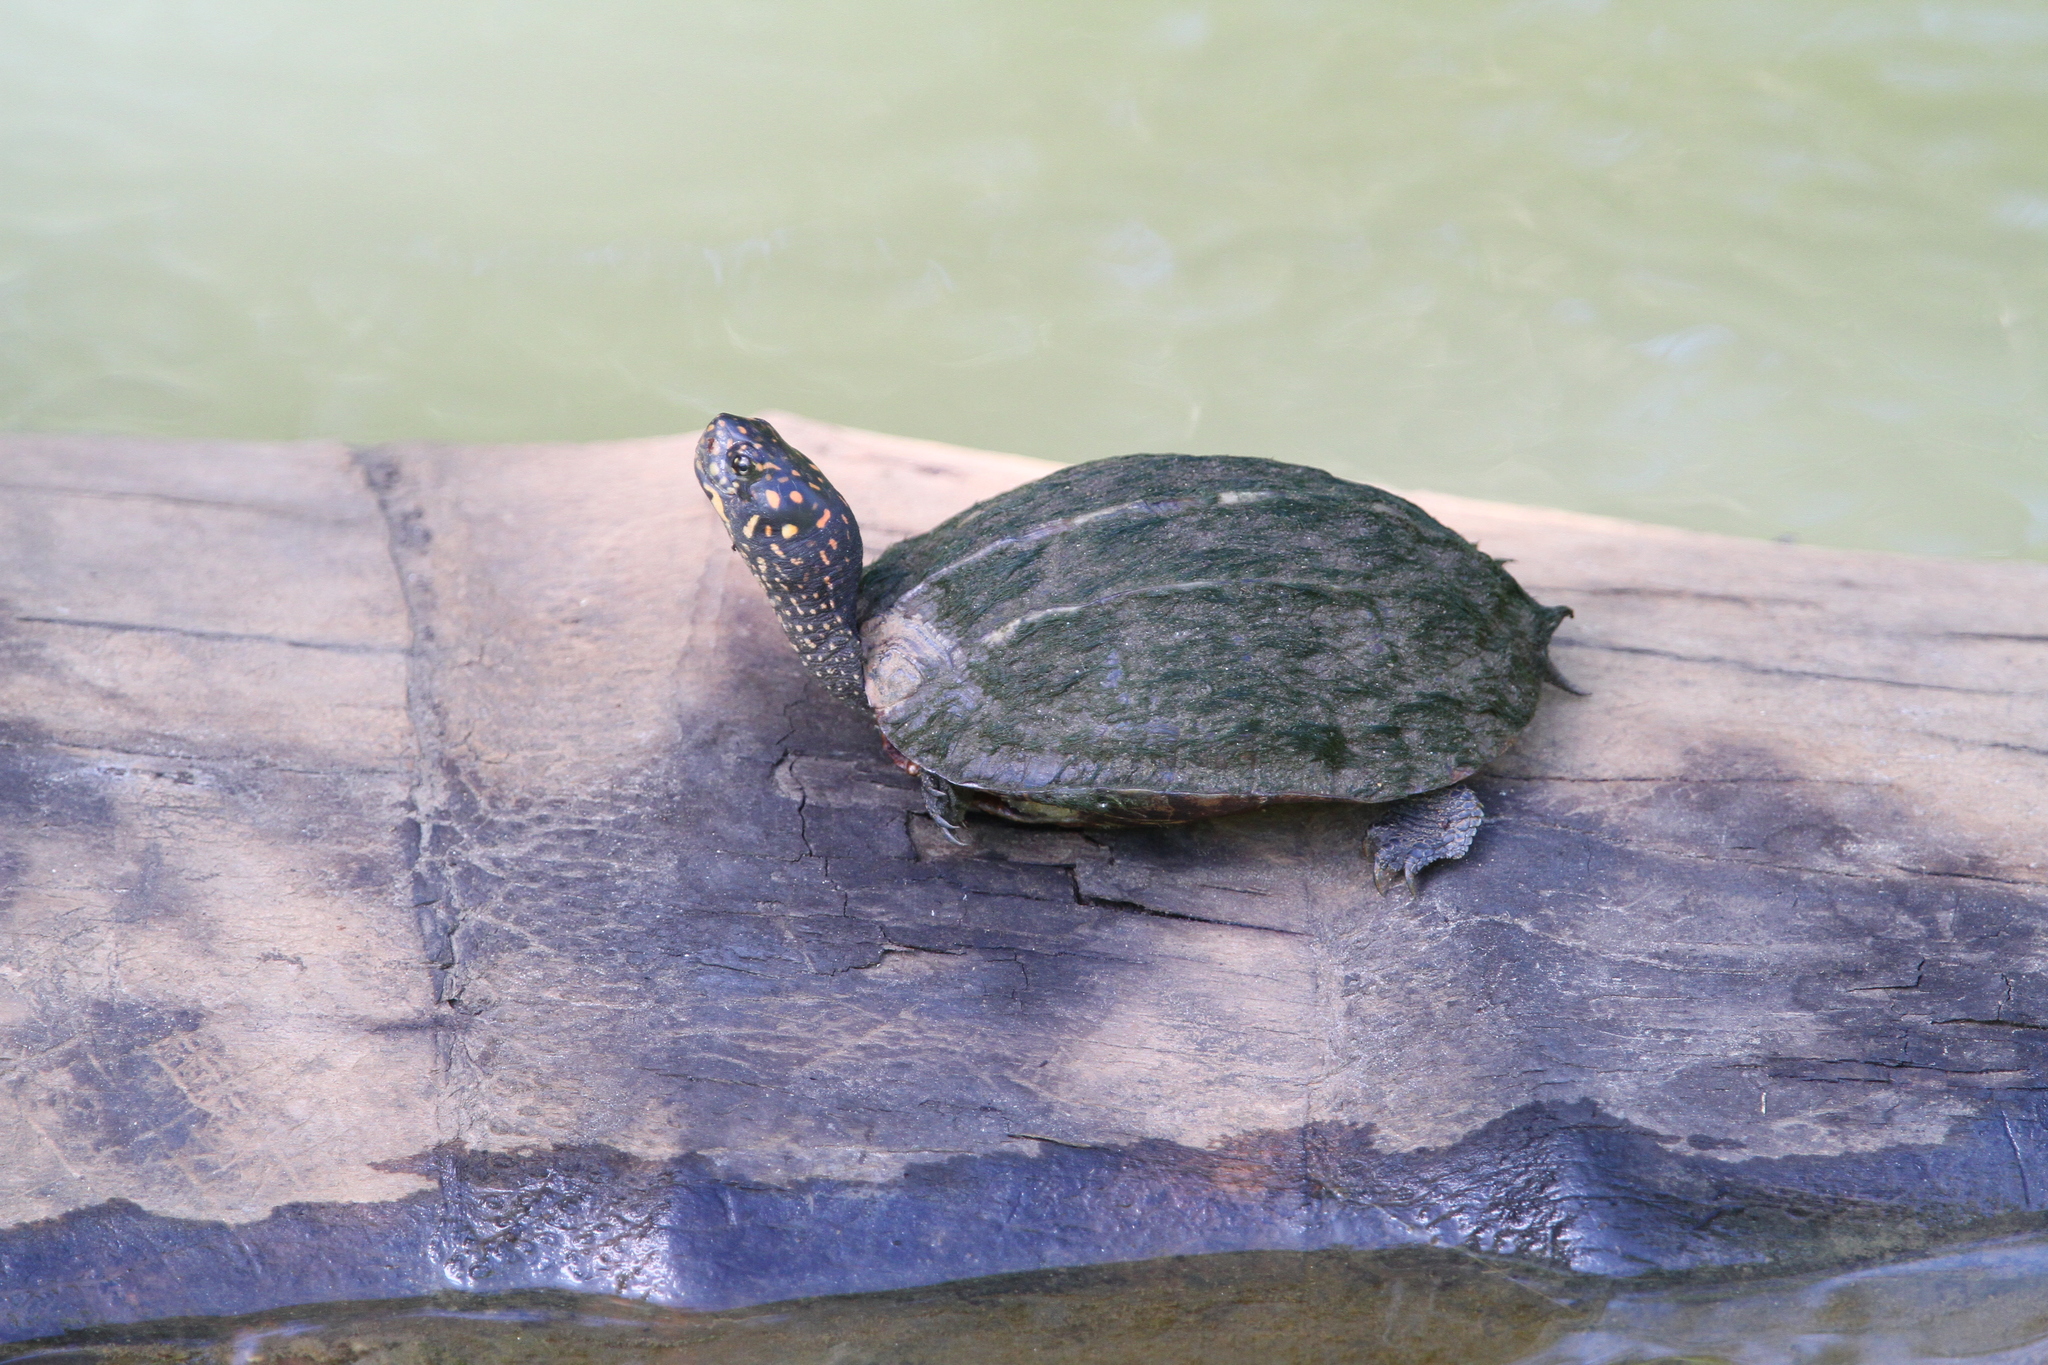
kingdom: Animalia
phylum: Chordata
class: Testudines
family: Geoemydidae
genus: Melanochelys
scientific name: Melanochelys trijuga
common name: Indian black turtle
